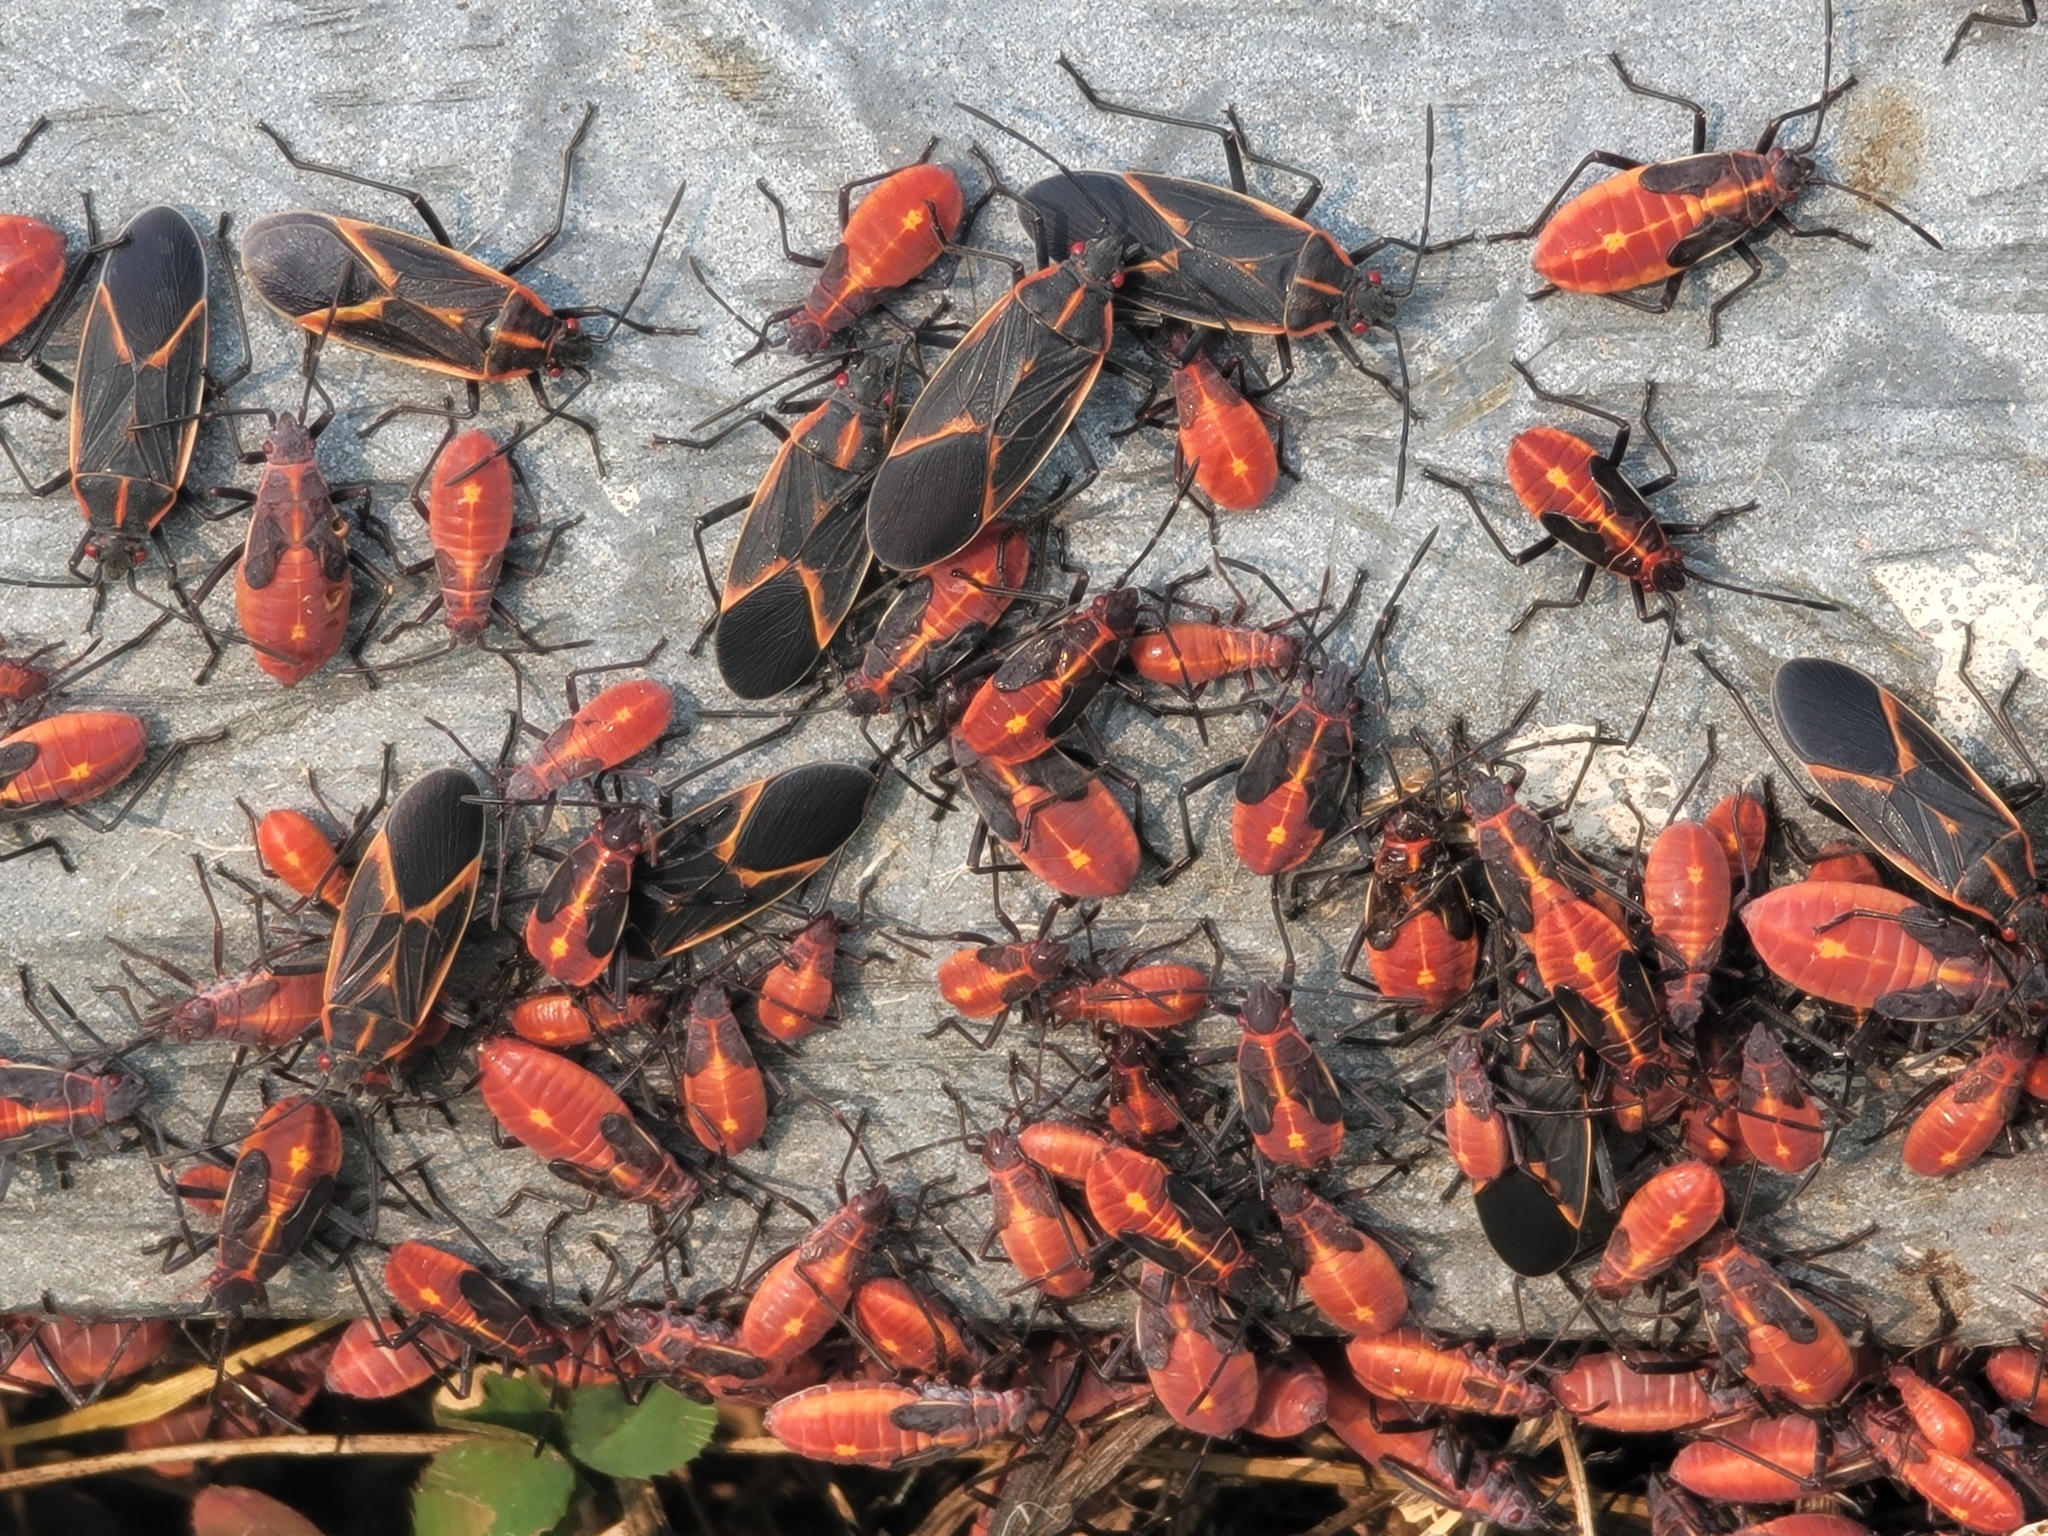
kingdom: Animalia
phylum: Arthropoda
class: Insecta
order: Hemiptera
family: Rhopalidae
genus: Boisea
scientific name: Boisea trivittata
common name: Boxelder bug
